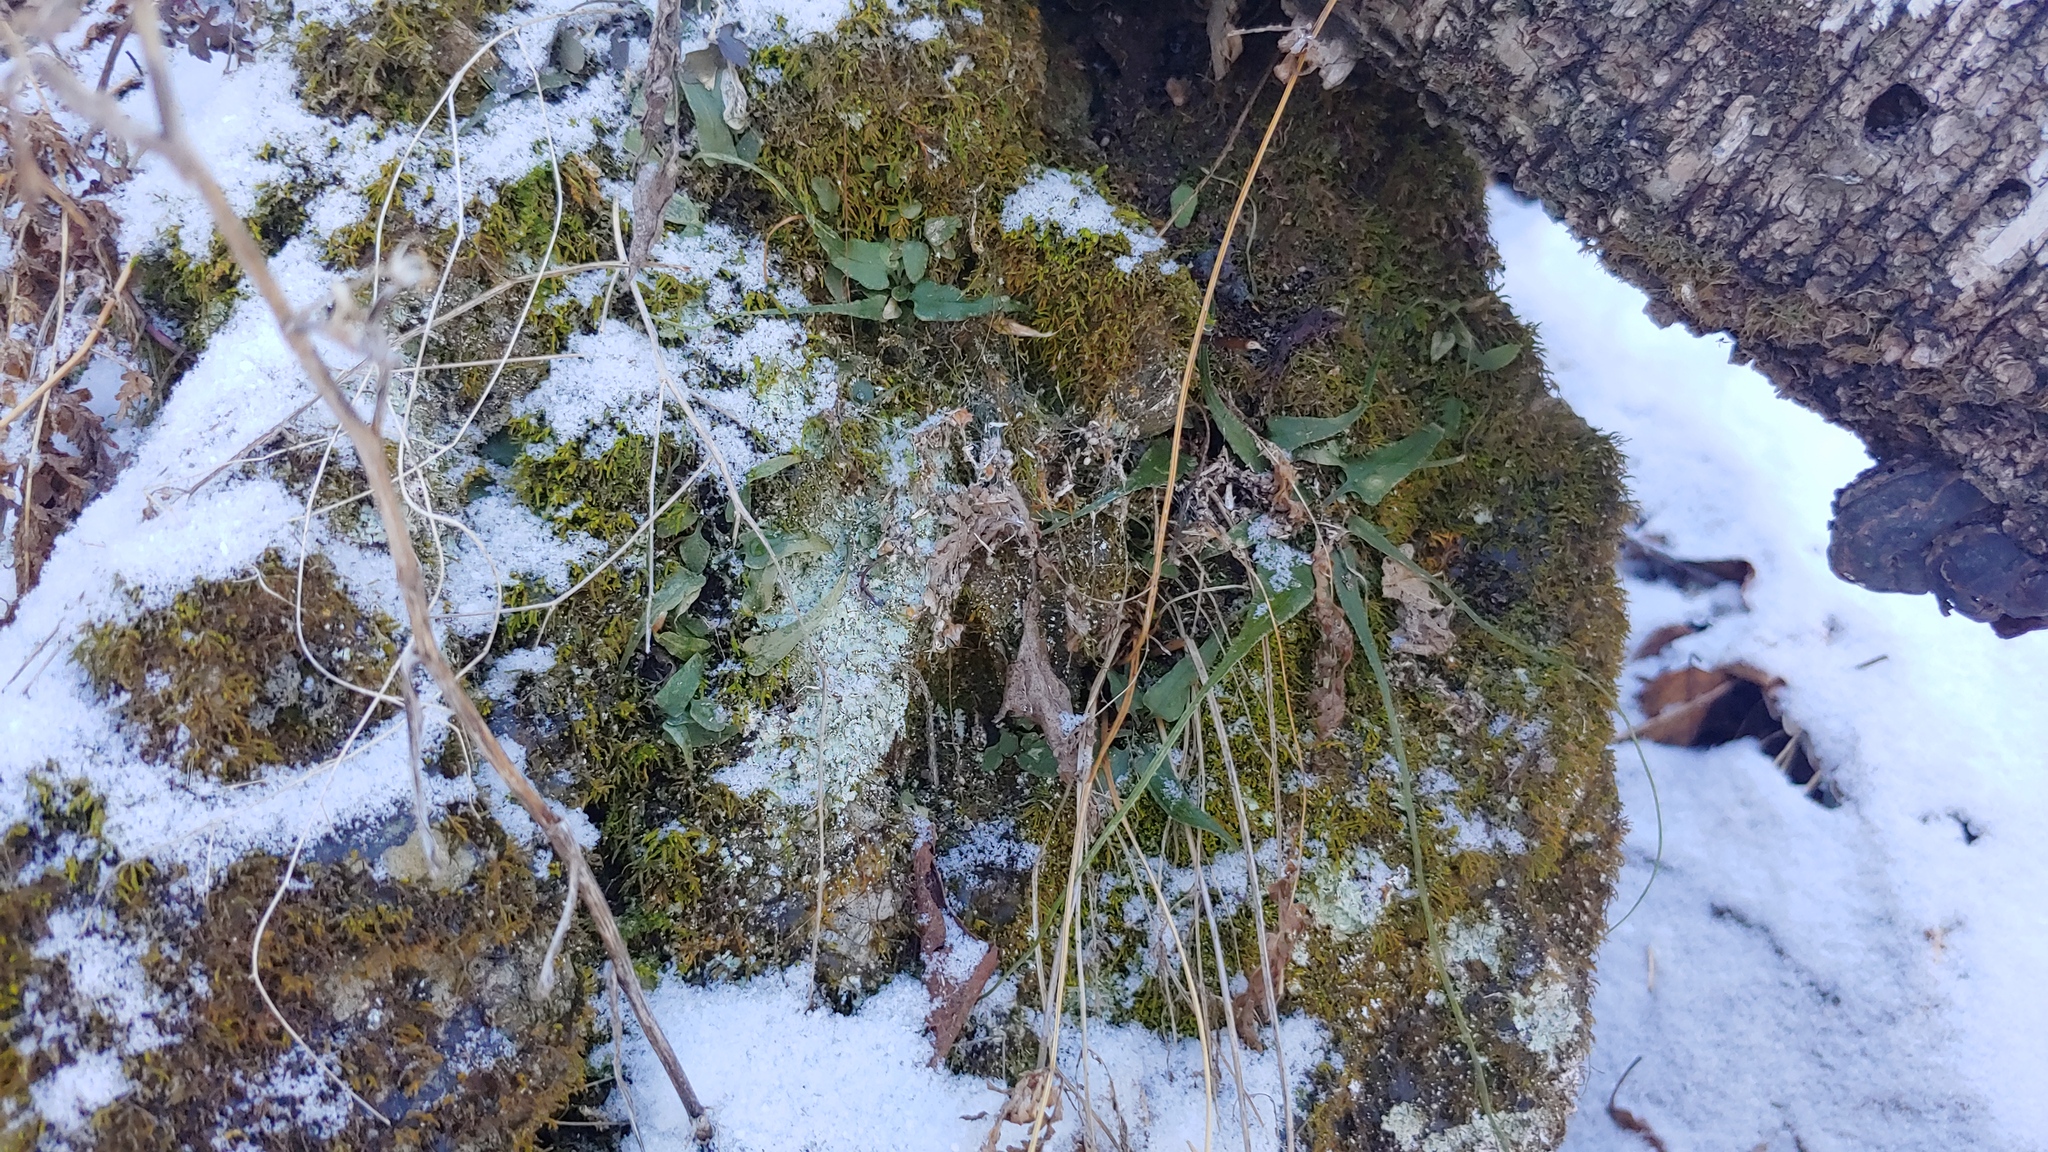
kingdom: Plantae
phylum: Tracheophyta
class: Polypodiopsida
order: Polypodiales
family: Aspleniaceae
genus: Asplenium
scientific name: Asplenium rhizophyllum
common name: Walking fern
